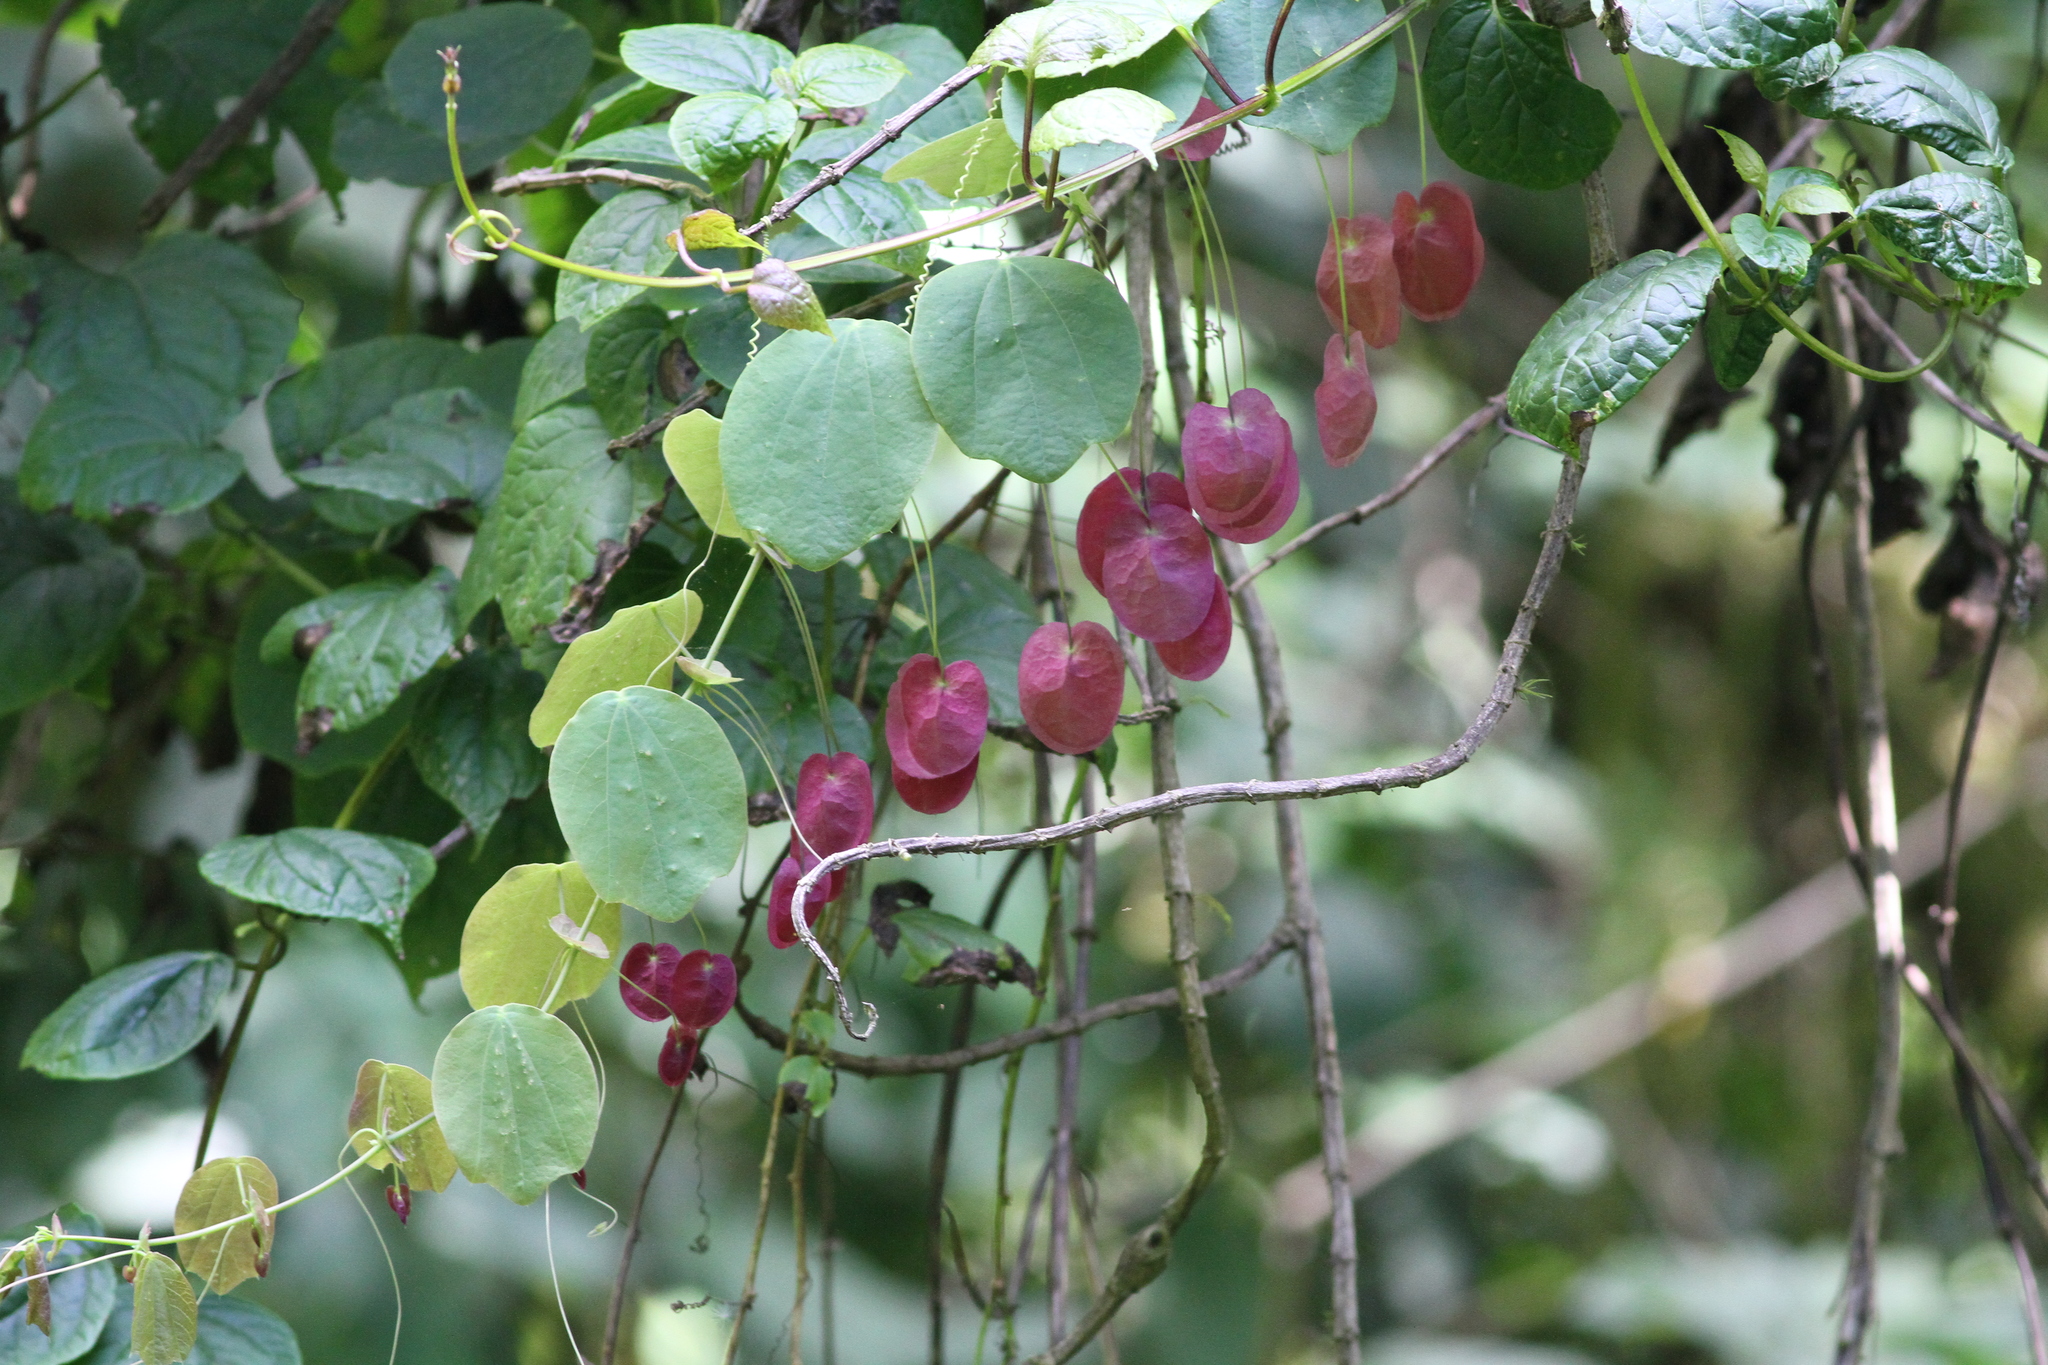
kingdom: Plantae
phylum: Tracheophyta
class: Magnoliopsida
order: Malpighiales
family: Passifloraceae
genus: Passiflora
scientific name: Passiflora membranacea
